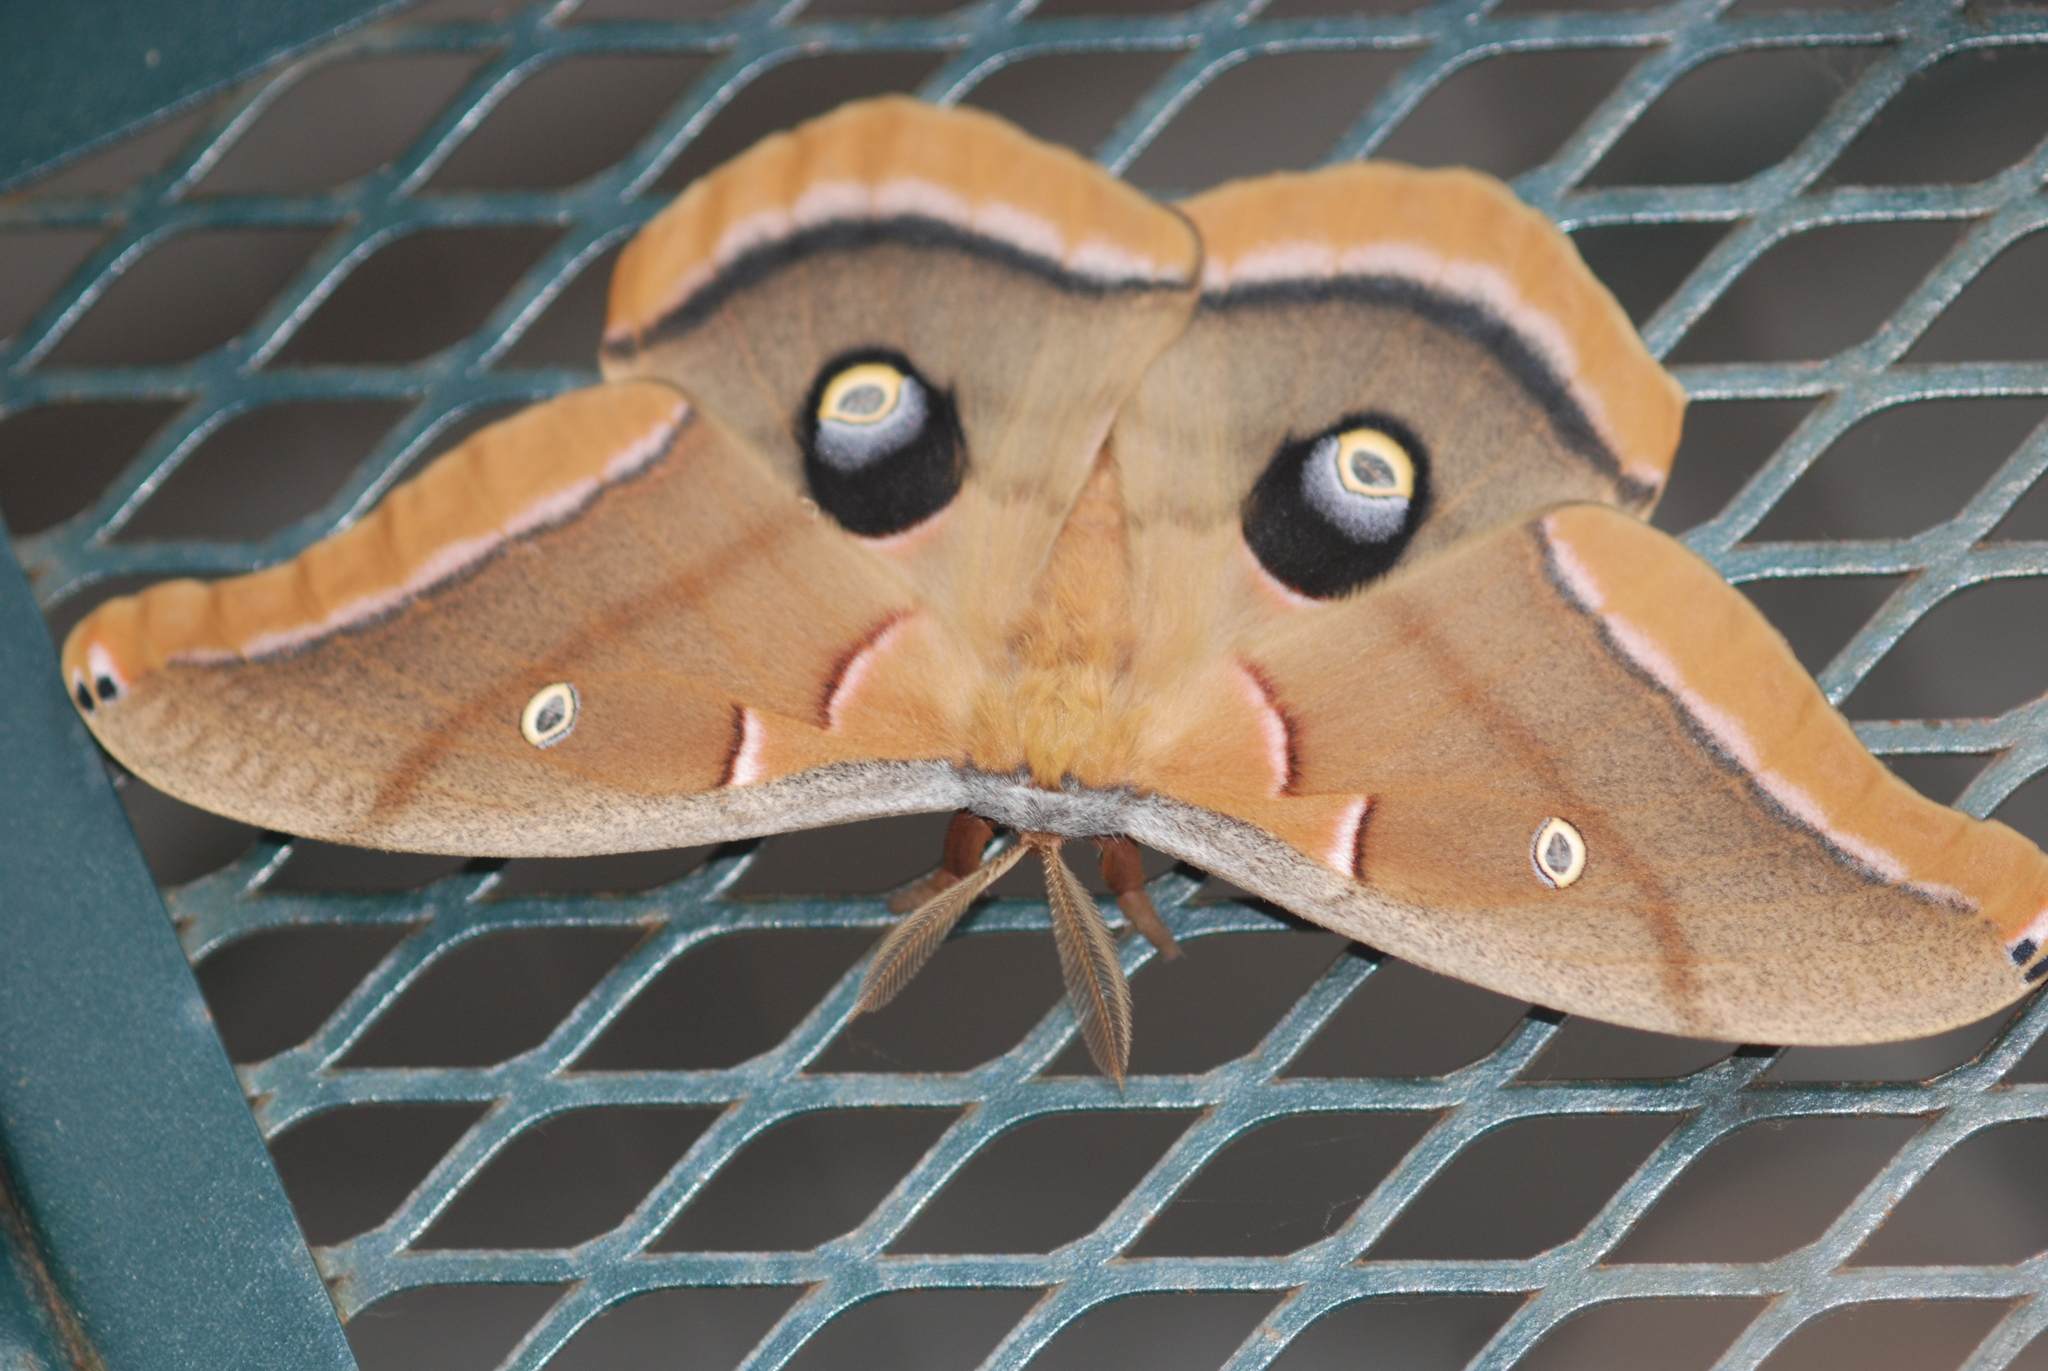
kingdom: Animalia
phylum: Arthropoda
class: Insecta
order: Lepidoptera
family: Saturniidae
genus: Antheraea
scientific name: Antheraea polyphemus
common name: Polyphemus moth
